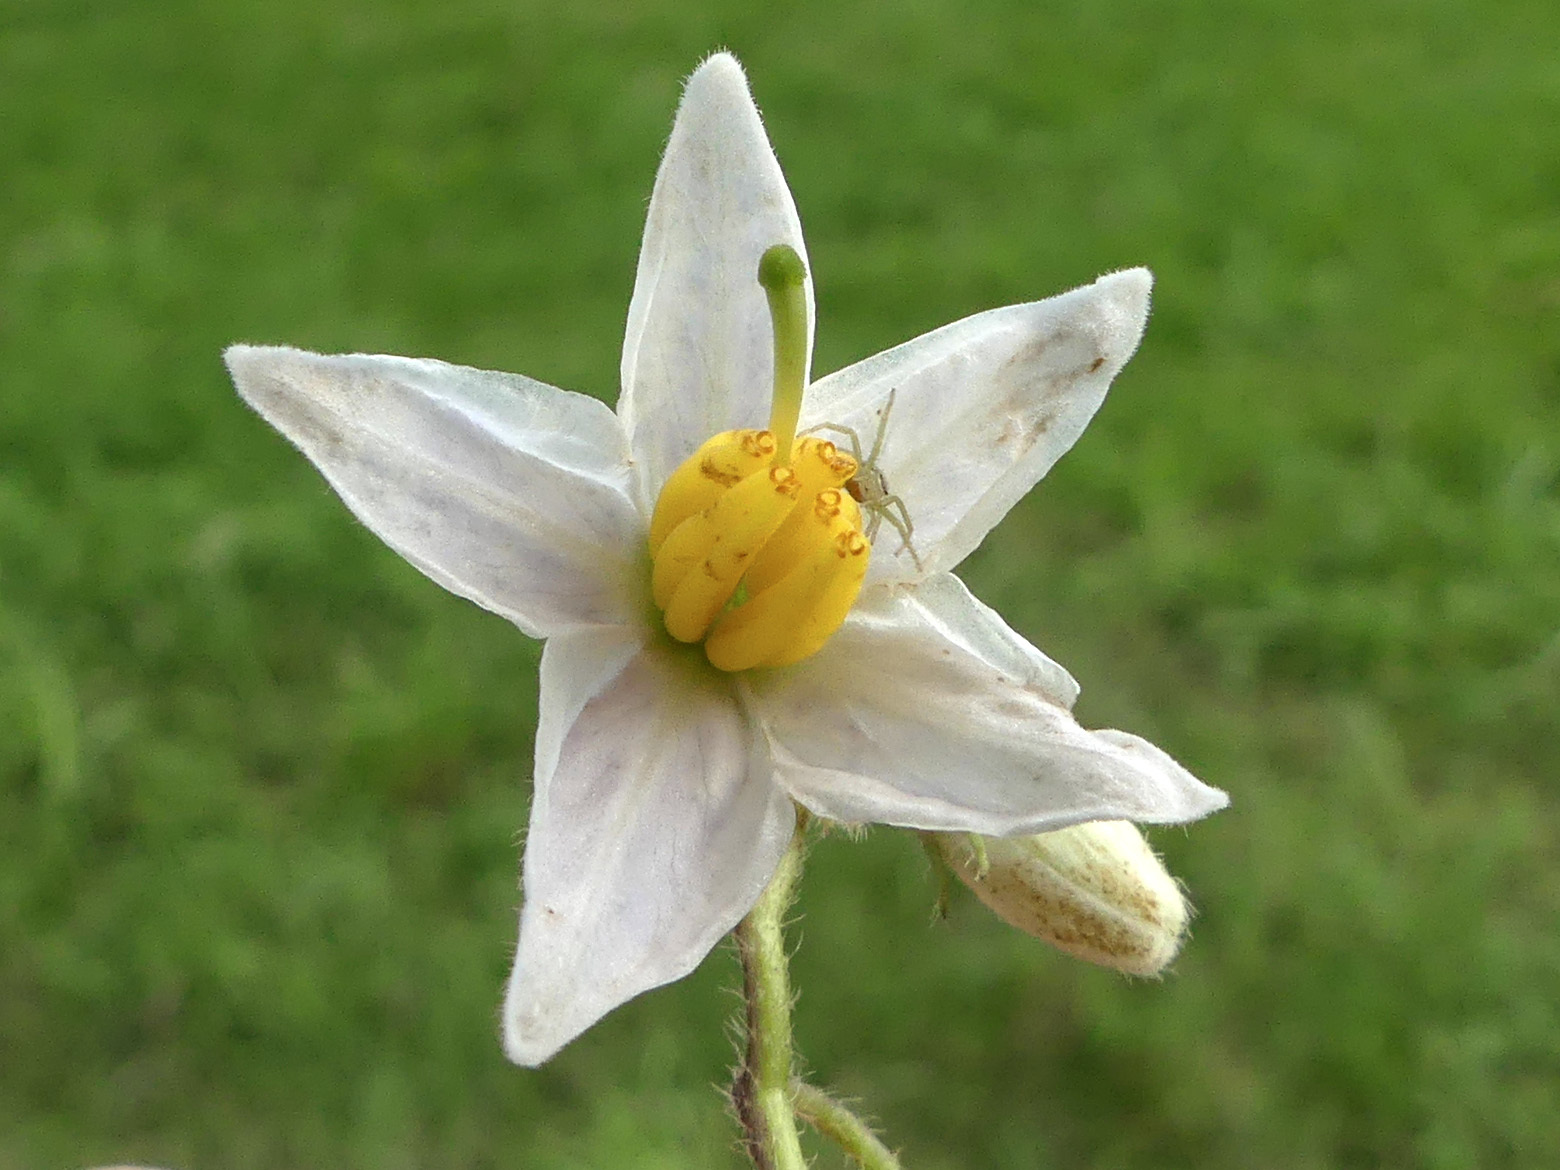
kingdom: Plantae
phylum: Tracheophyta
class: Magnoliopsida
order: Solanales
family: Solanaceae
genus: Solanum
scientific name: Solanum carolinense
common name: Horse-nettle
